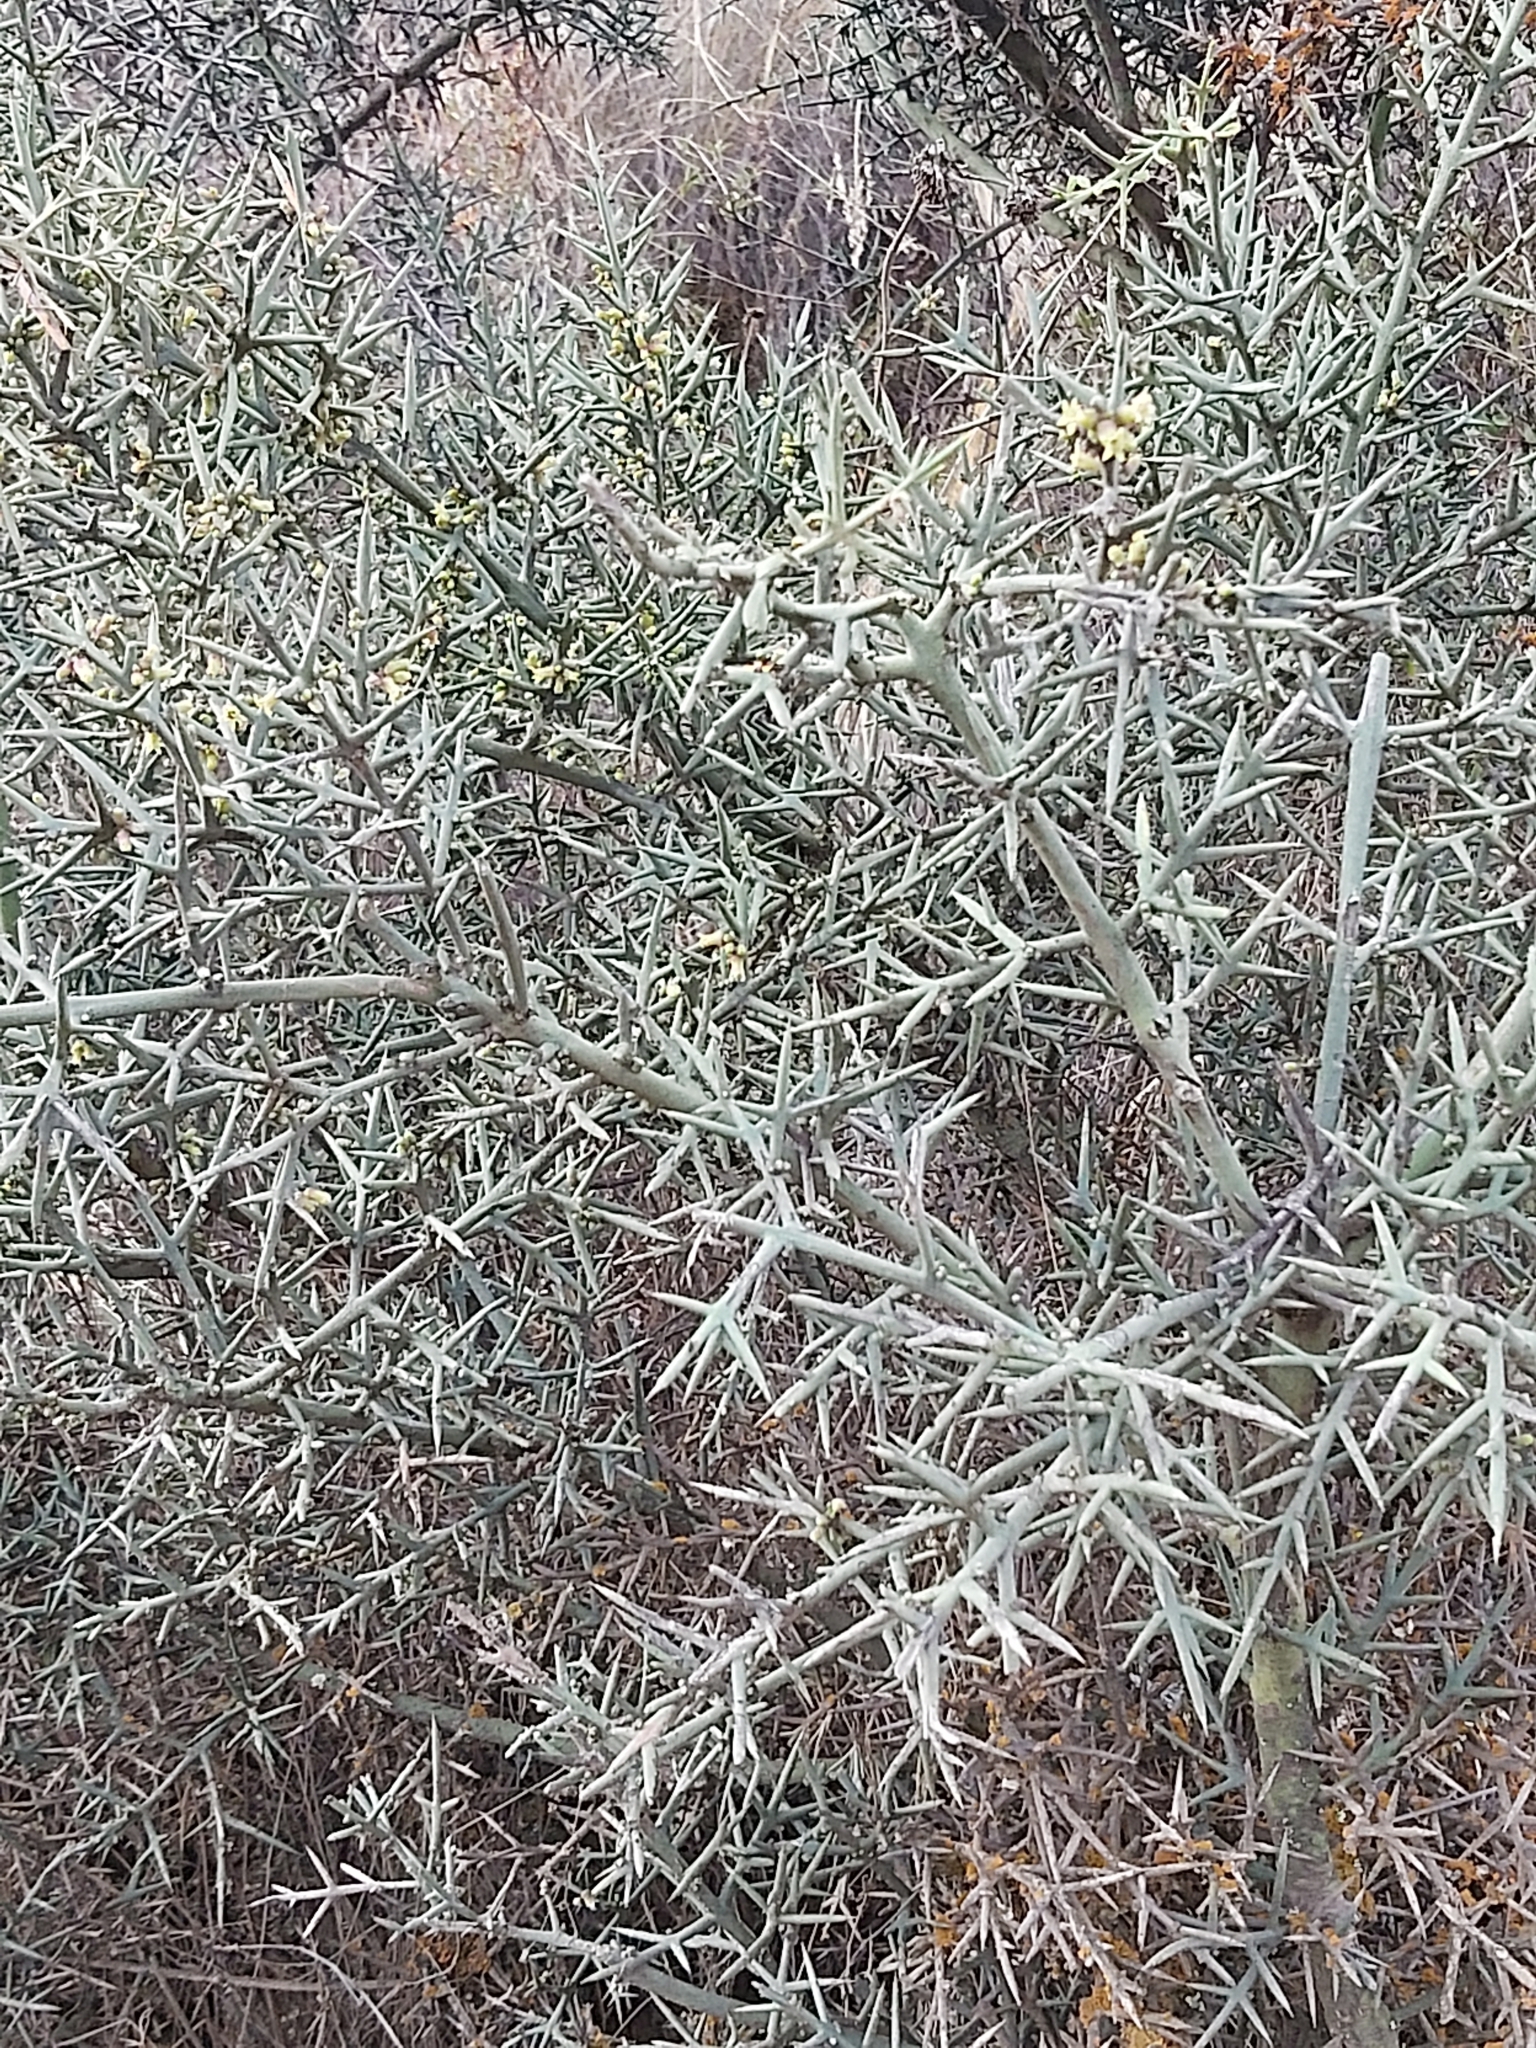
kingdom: Plantae
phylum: Tracheophyta
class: Magnoliopsida
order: Rosales
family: Rhamnaceae
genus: Colletia
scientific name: Colletia spinosissima
